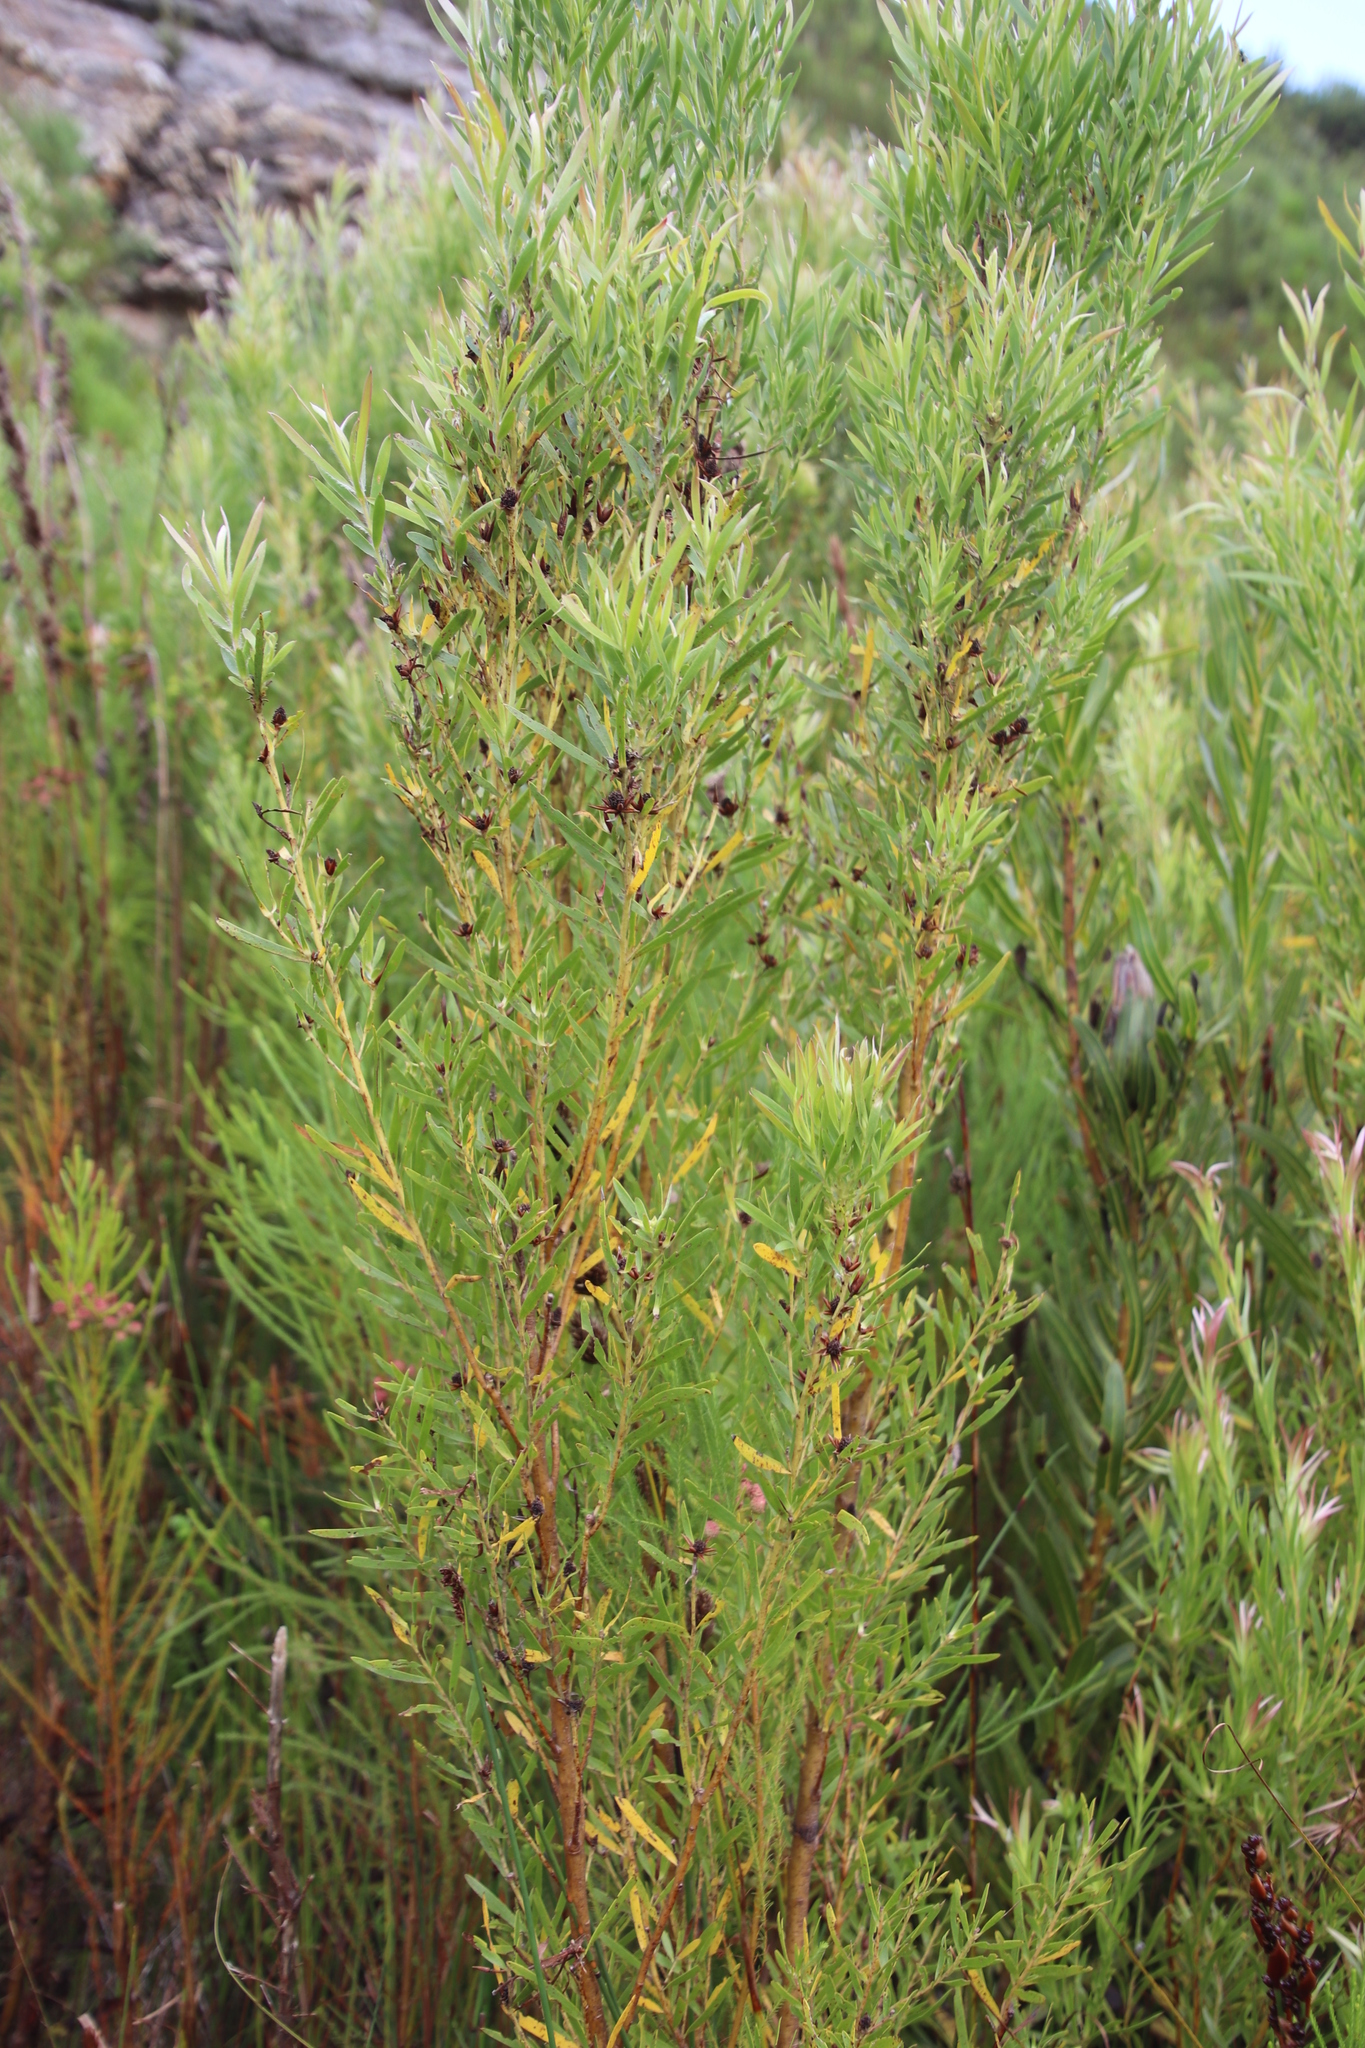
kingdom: Plantae
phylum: Tracheophyta
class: Magnoliopsida
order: Proteales
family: Proteaceae
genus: Leucadendron
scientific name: Leucadendron salicifolium
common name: Common stream conebush
